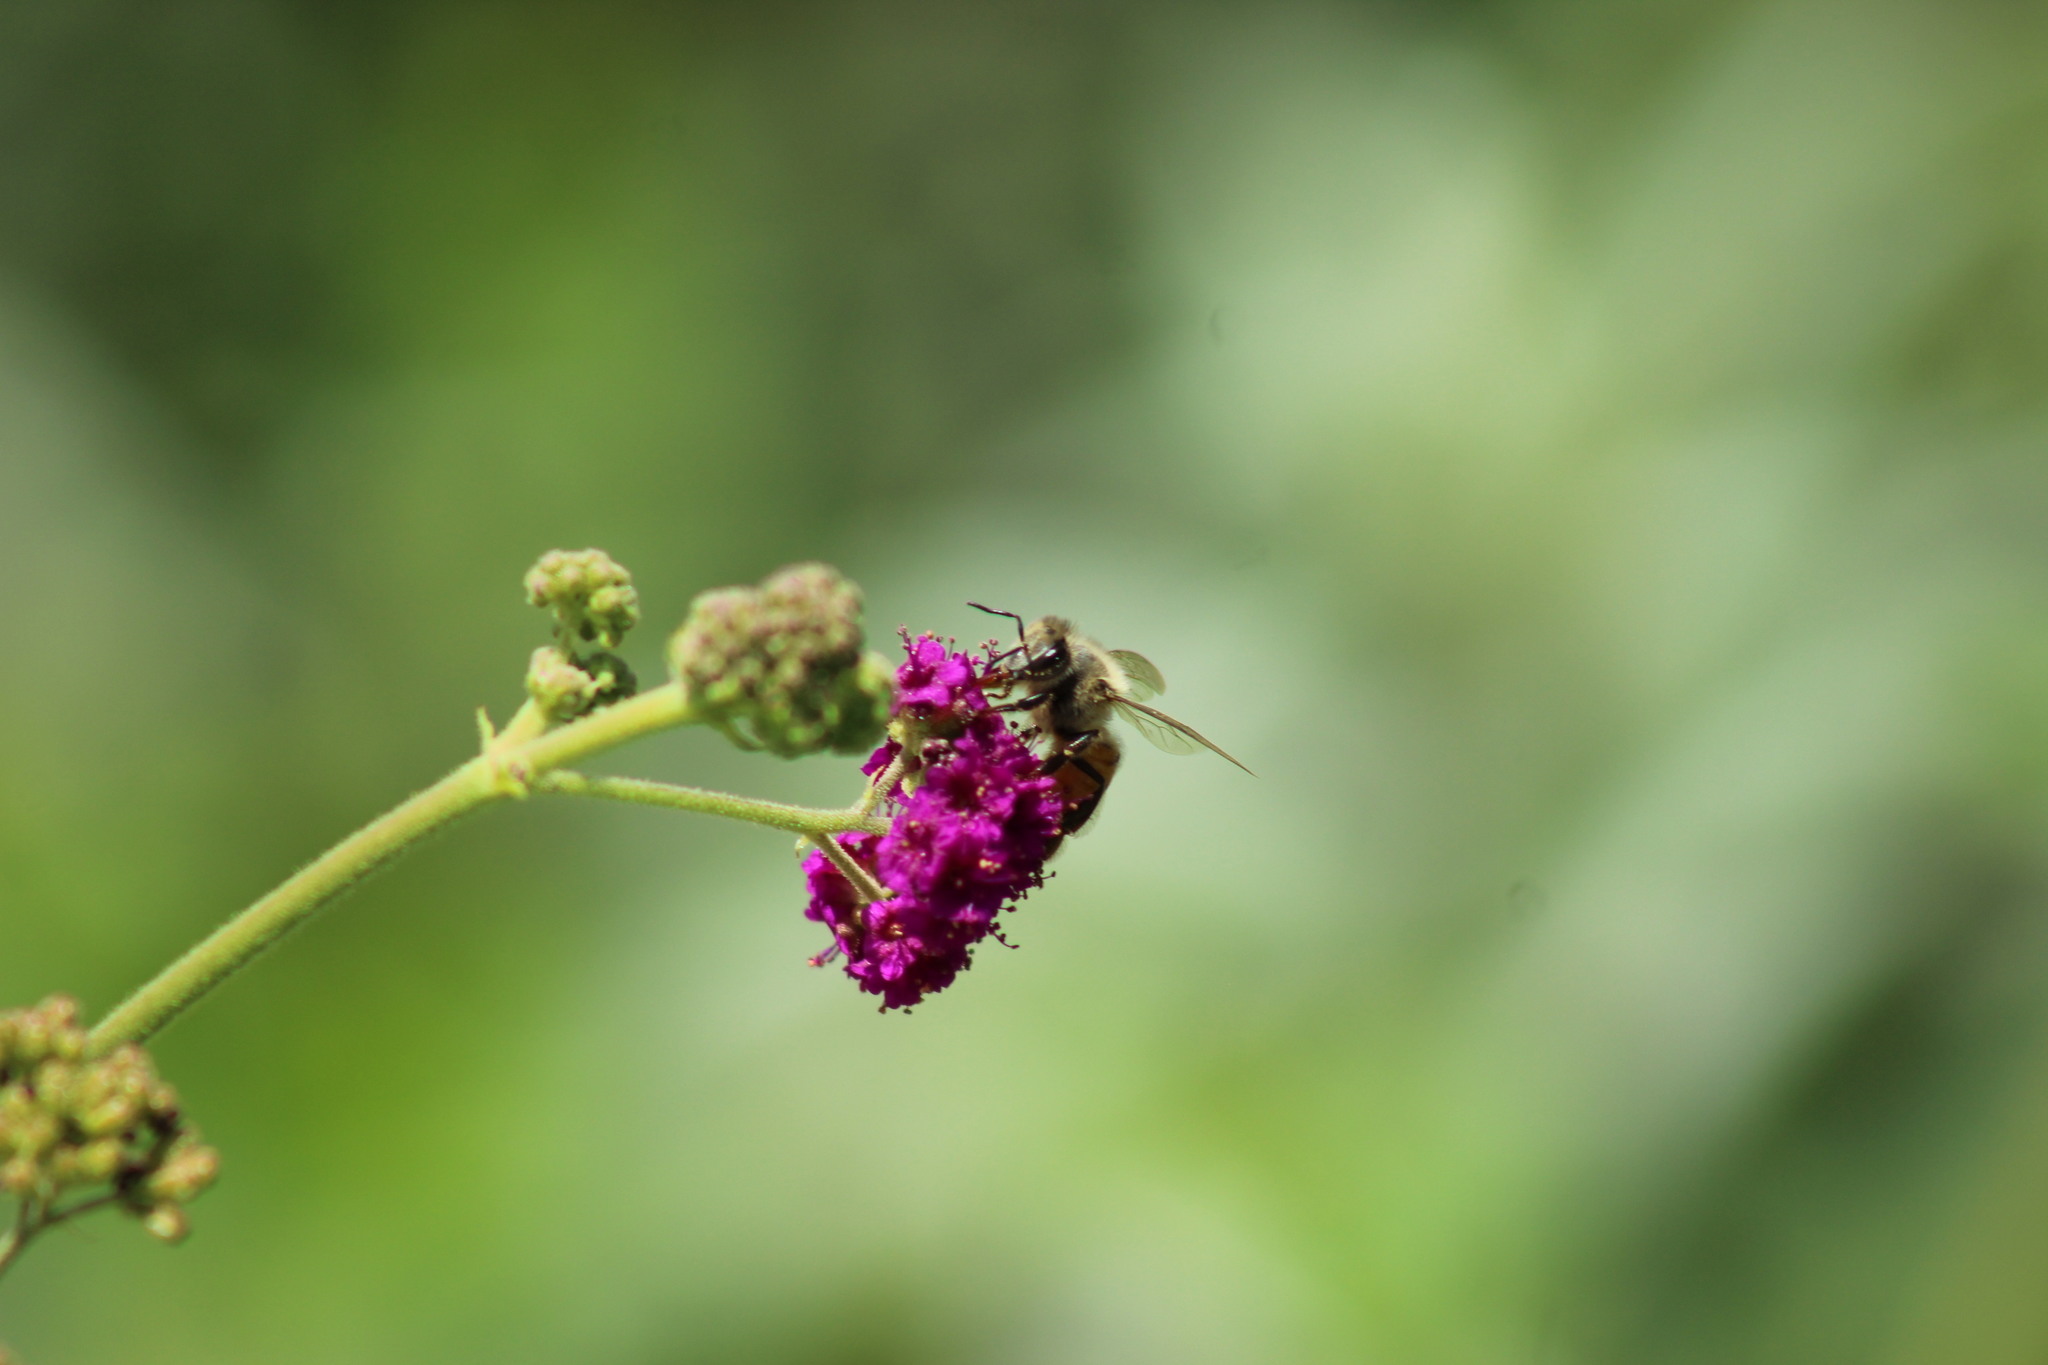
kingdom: Plantae
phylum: Tracheophyta
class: Magnoliopsida
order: Caryophyllales
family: Nyctaginaceae
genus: Boerhavia
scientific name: Boerhavia coccinea
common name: Scarlet spiderling
